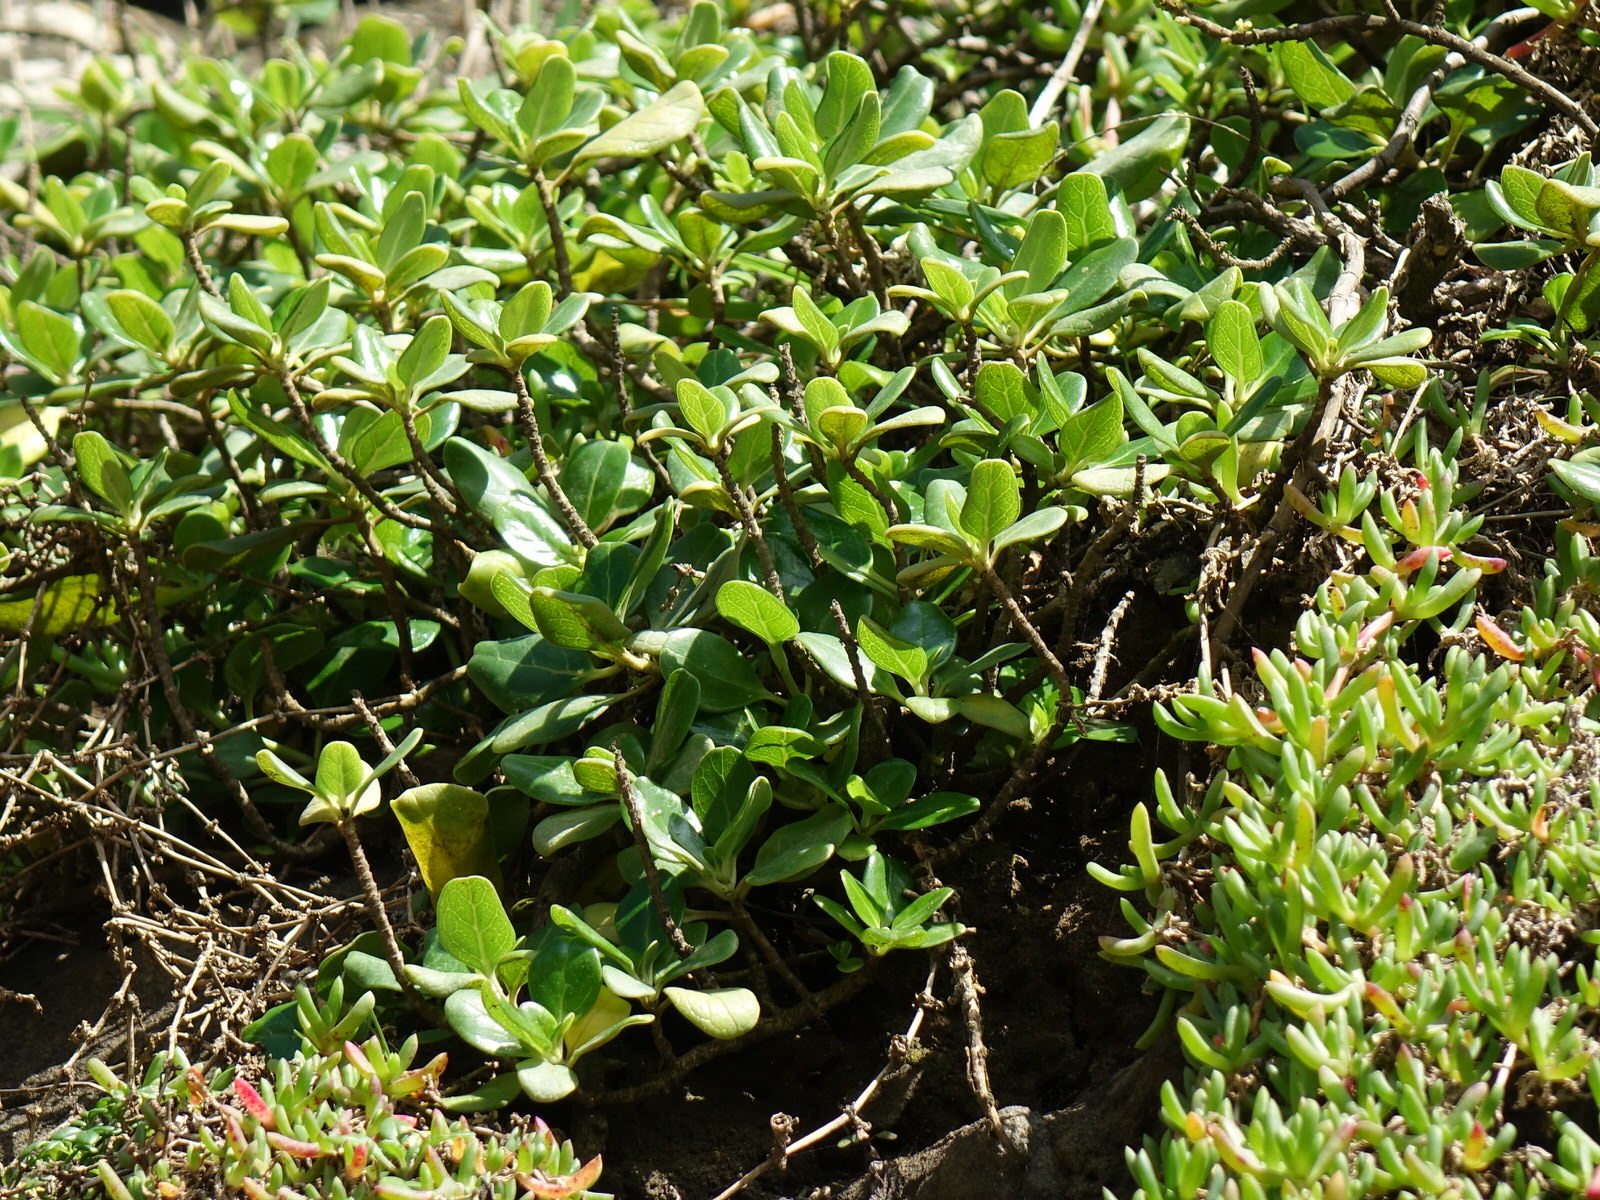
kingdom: Plantae
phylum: Tracheophyta
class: Magnoliopsida
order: Gentianales
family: Rubiaceae
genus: Coprosma
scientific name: Coprosma repens
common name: Tree bedstraw
